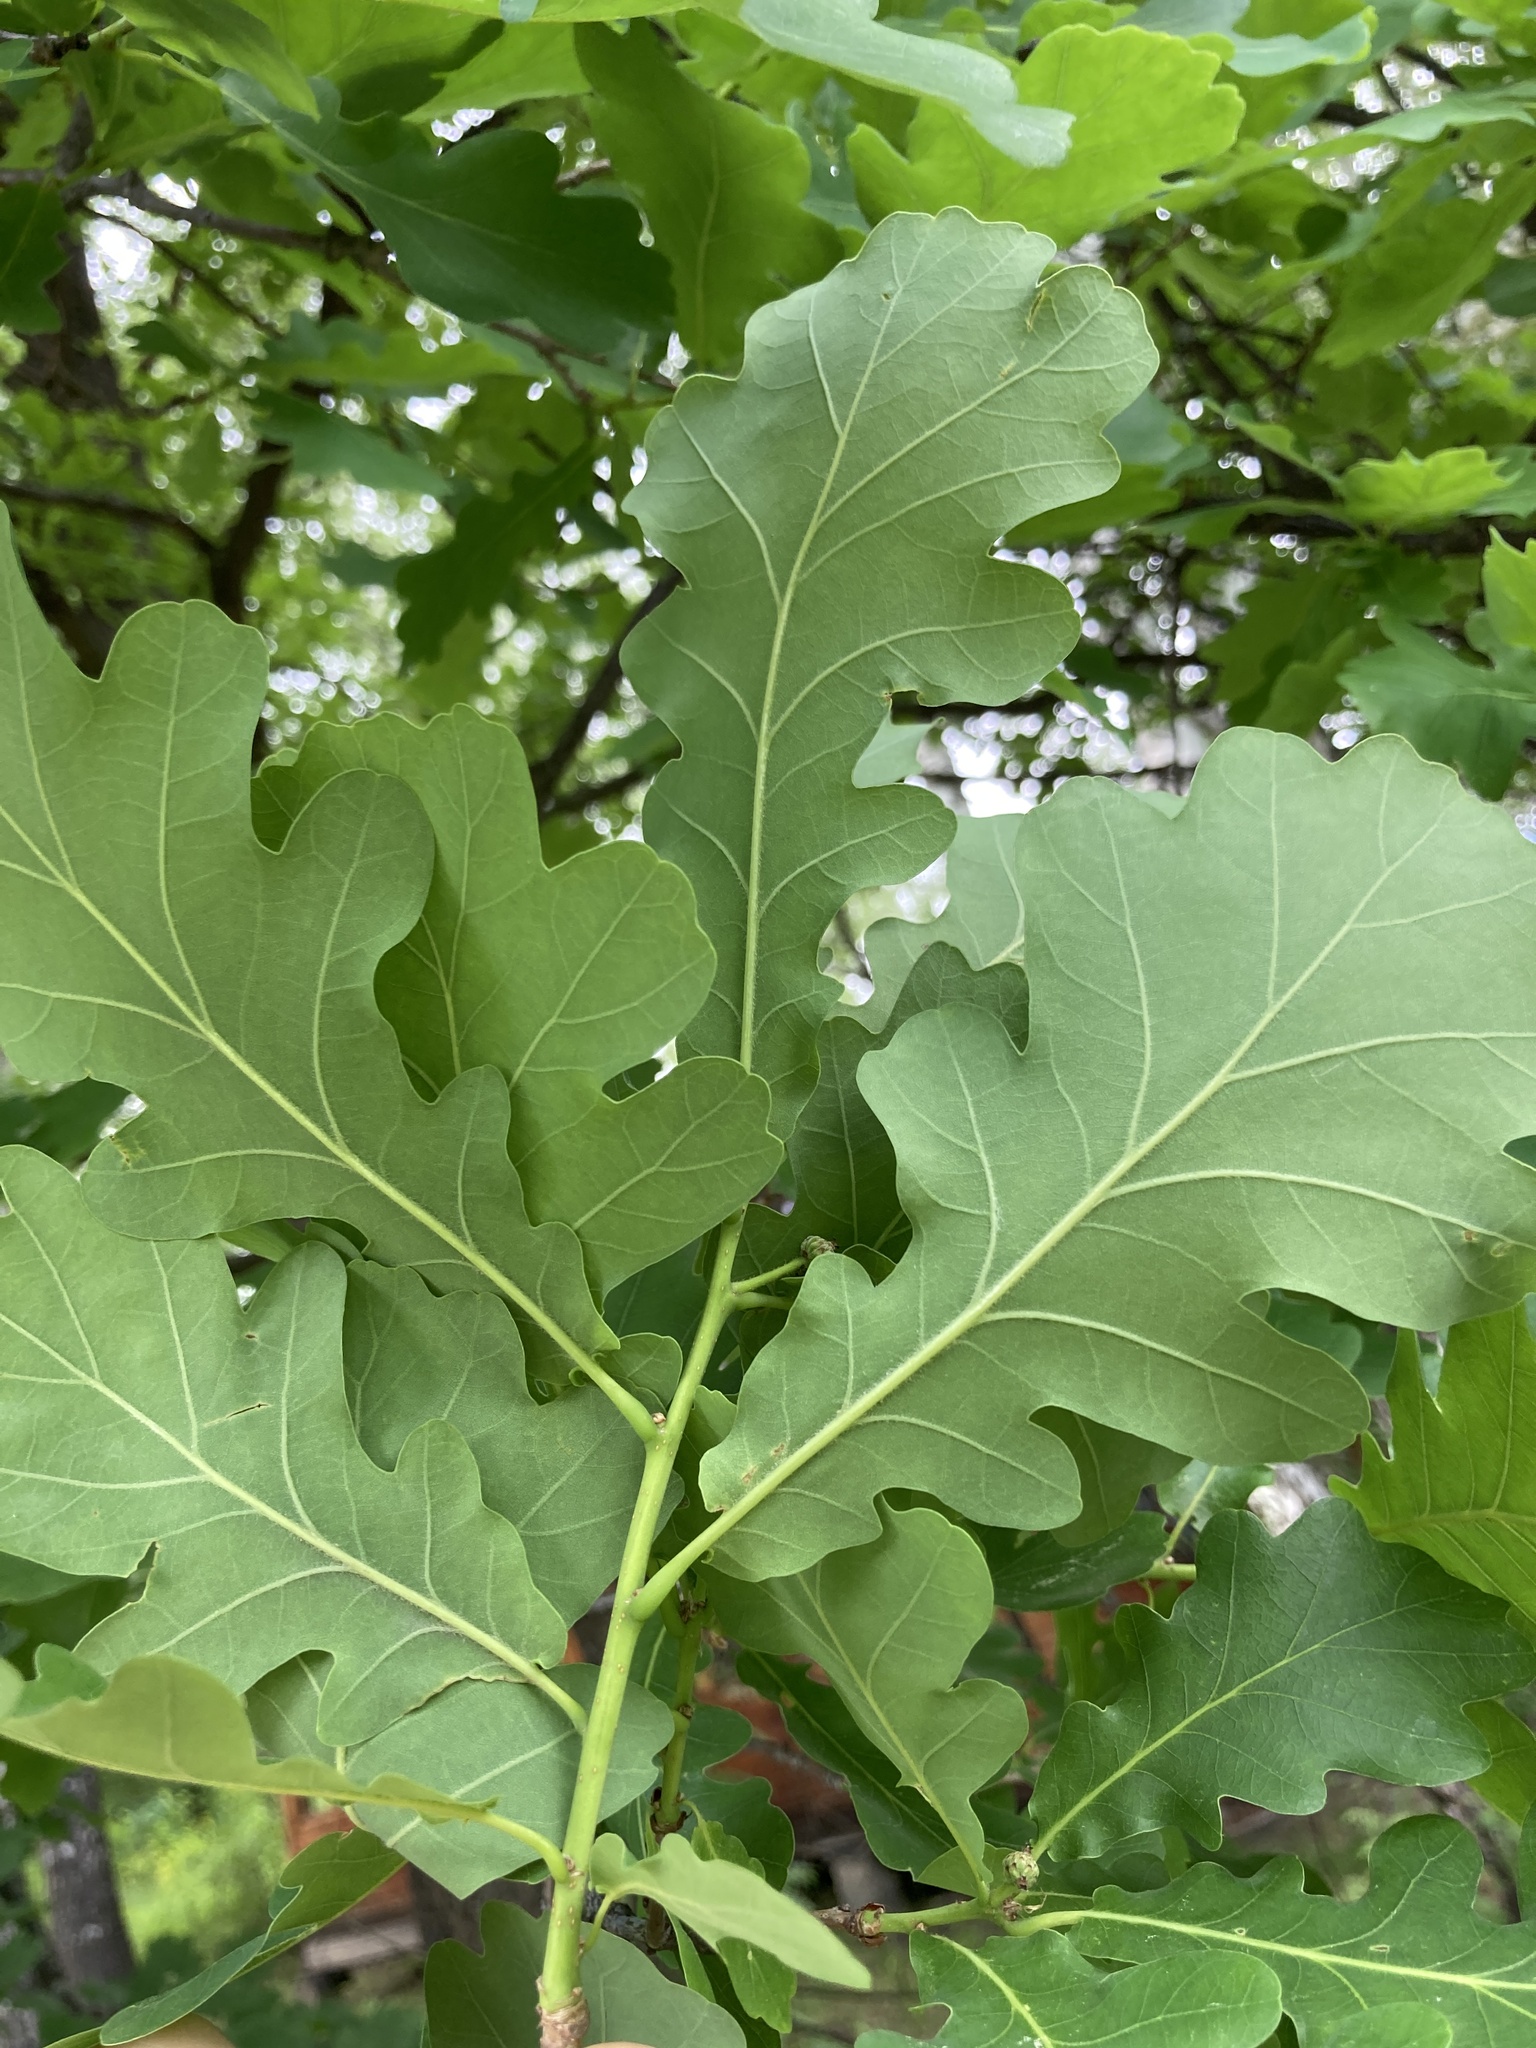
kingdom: Plantae
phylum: Tracheophyta
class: Magnoliopsida
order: Fagales
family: Fagaceae
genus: Quercus
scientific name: Quercus robur
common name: Pedunculate oak
